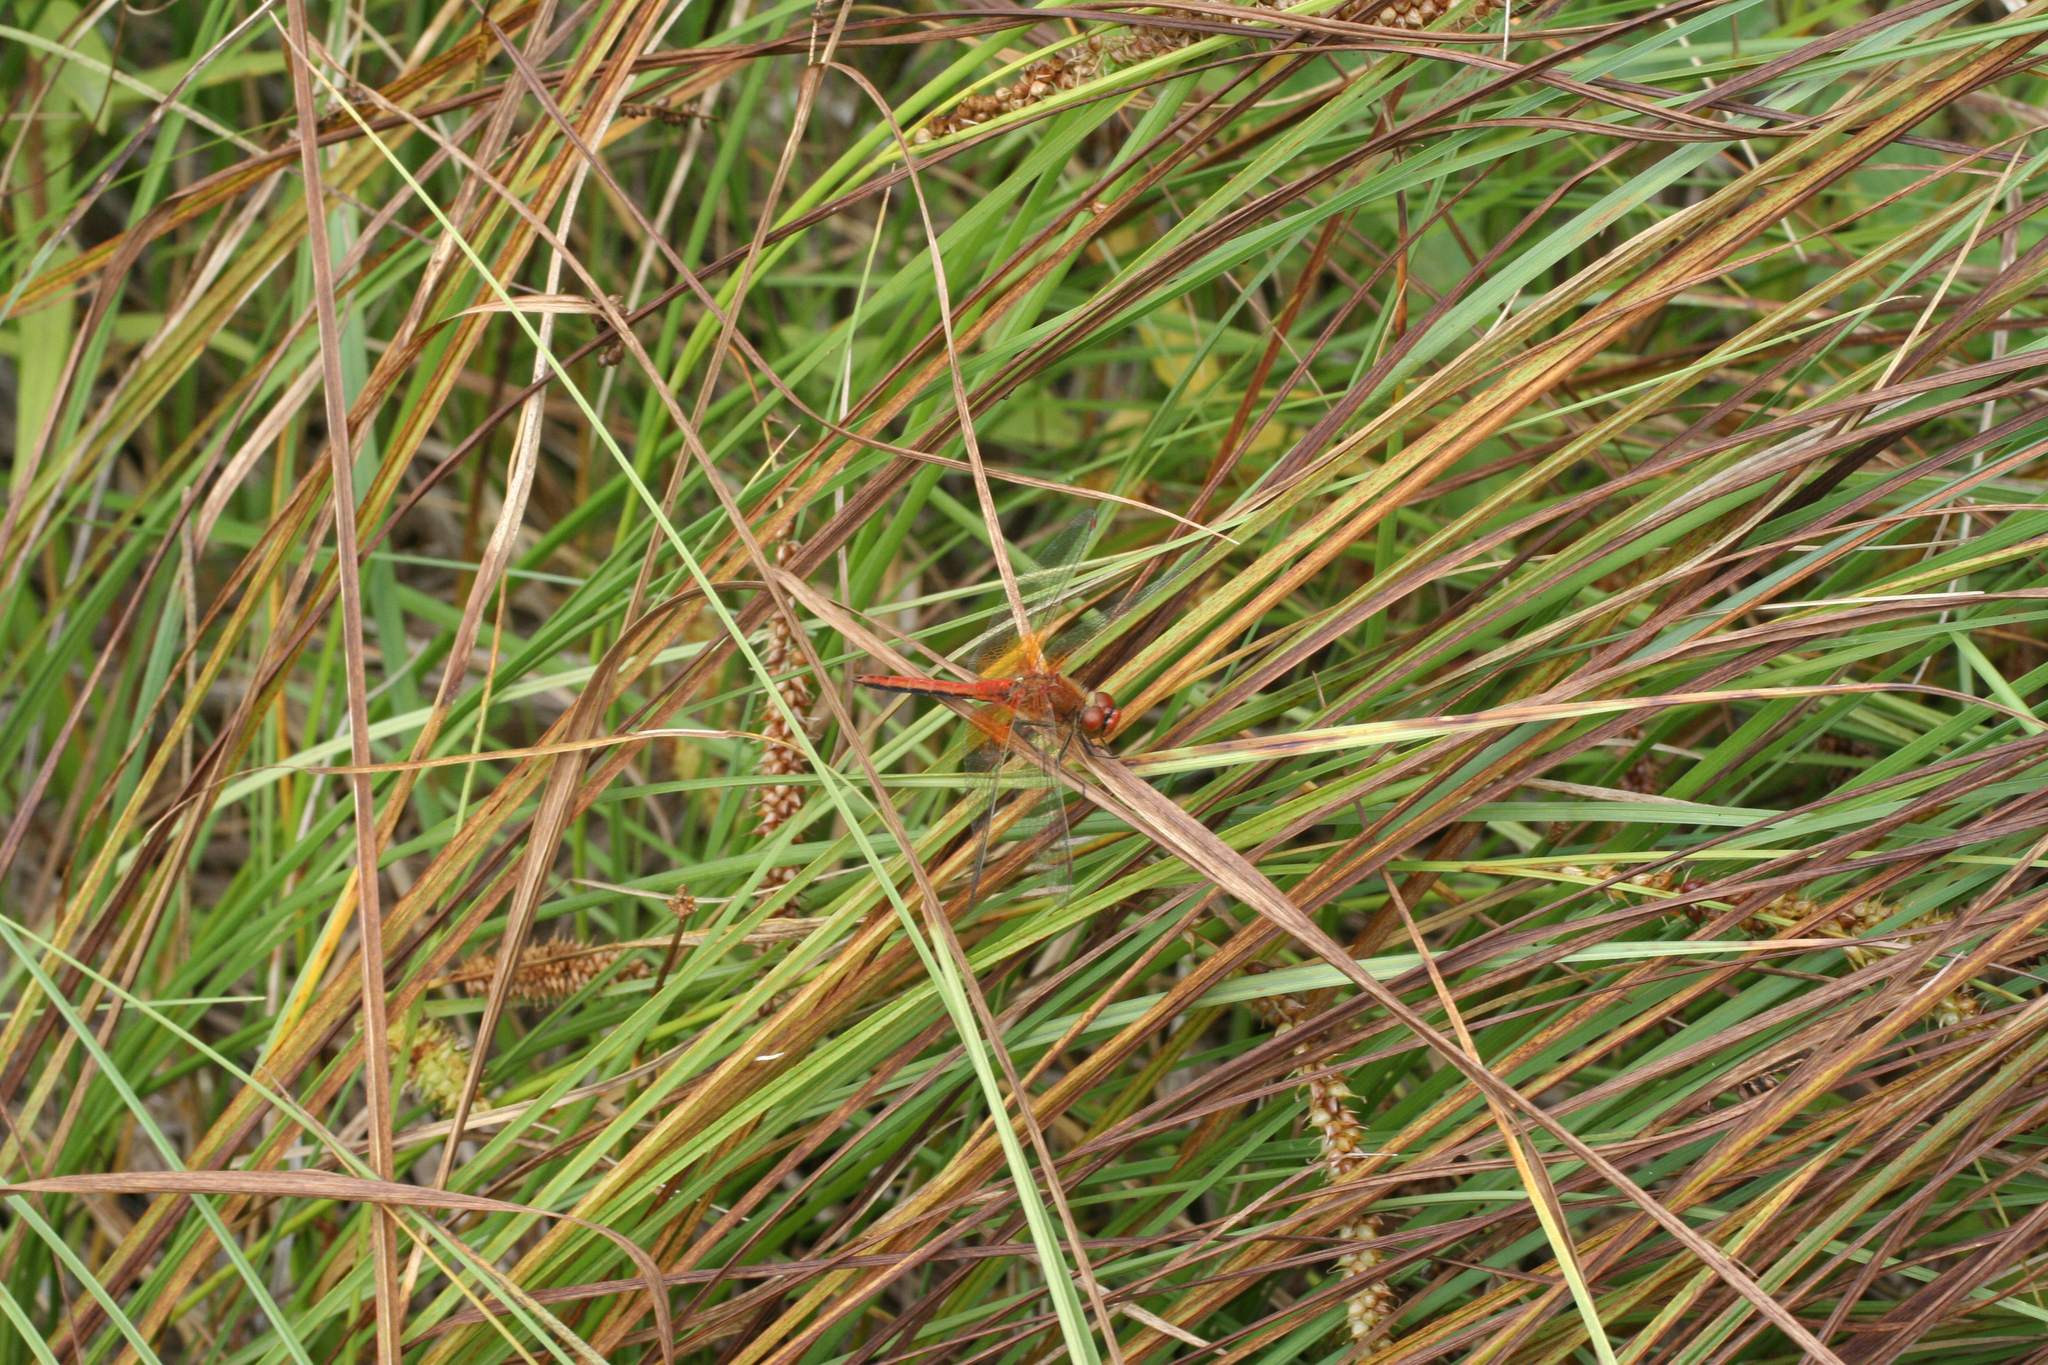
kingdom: Animalia
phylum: Arthropoda
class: Insecta
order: Odonata
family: Libellulidae
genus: Sympetrum
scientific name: Sympetrum flaveolum
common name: Yellow-winged darter
